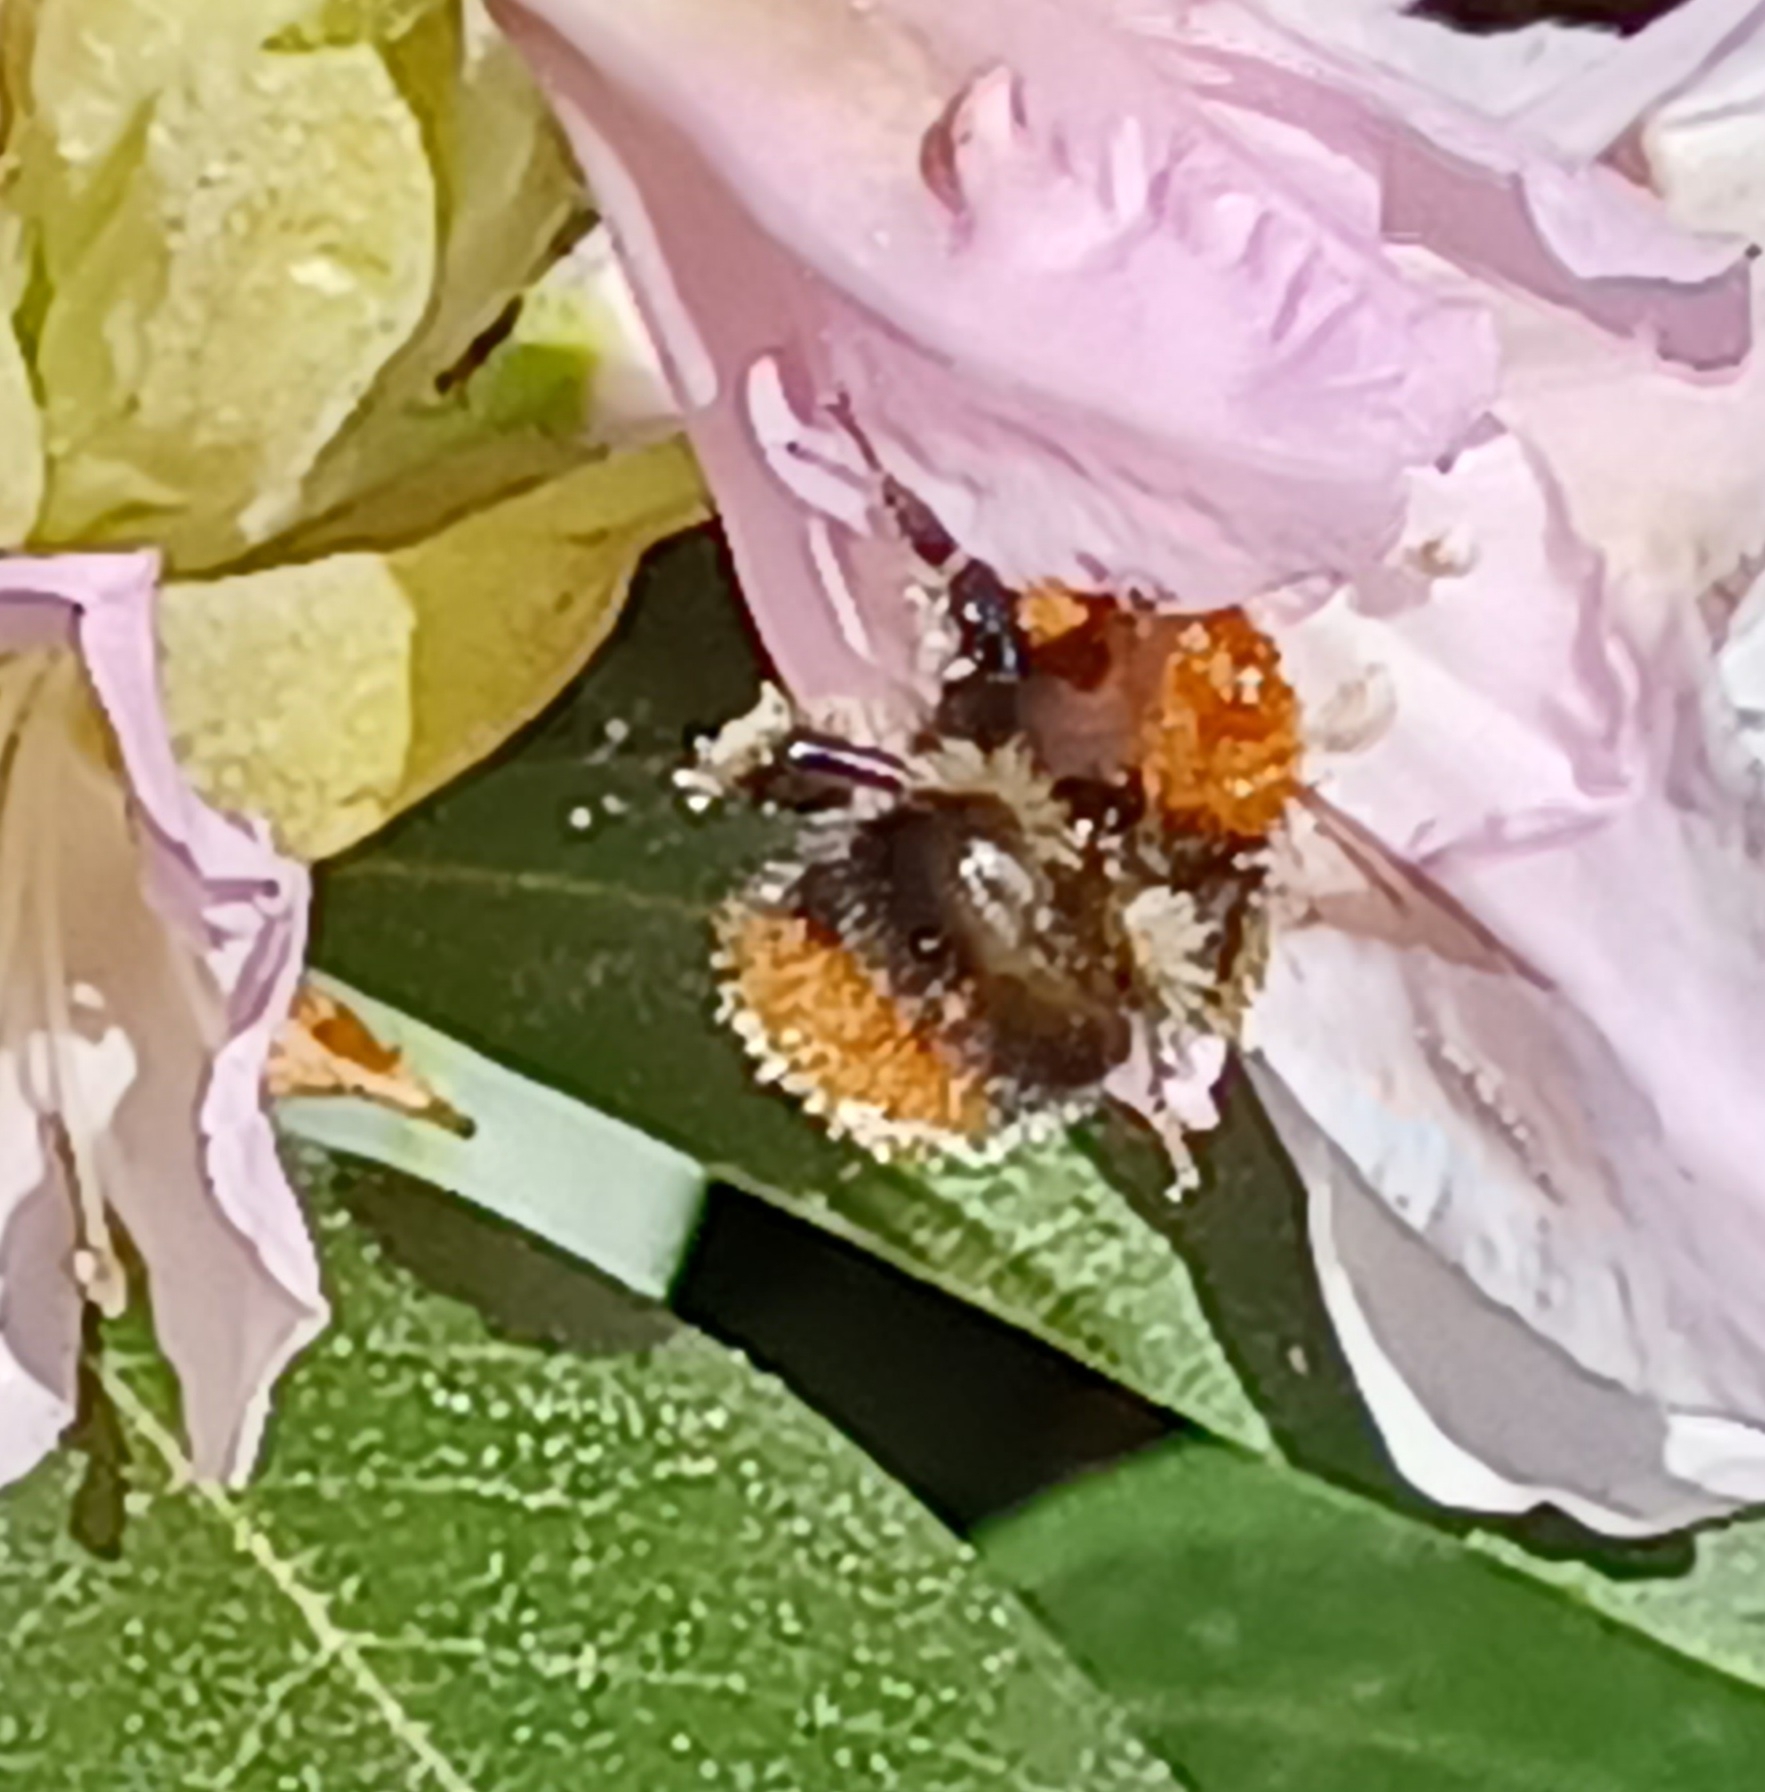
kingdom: Animalia
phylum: Arthropoda
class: Insecta
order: Hymenoptera
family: Apidae
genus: Bombus
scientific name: Bombus pascuorum
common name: Common carder bee
